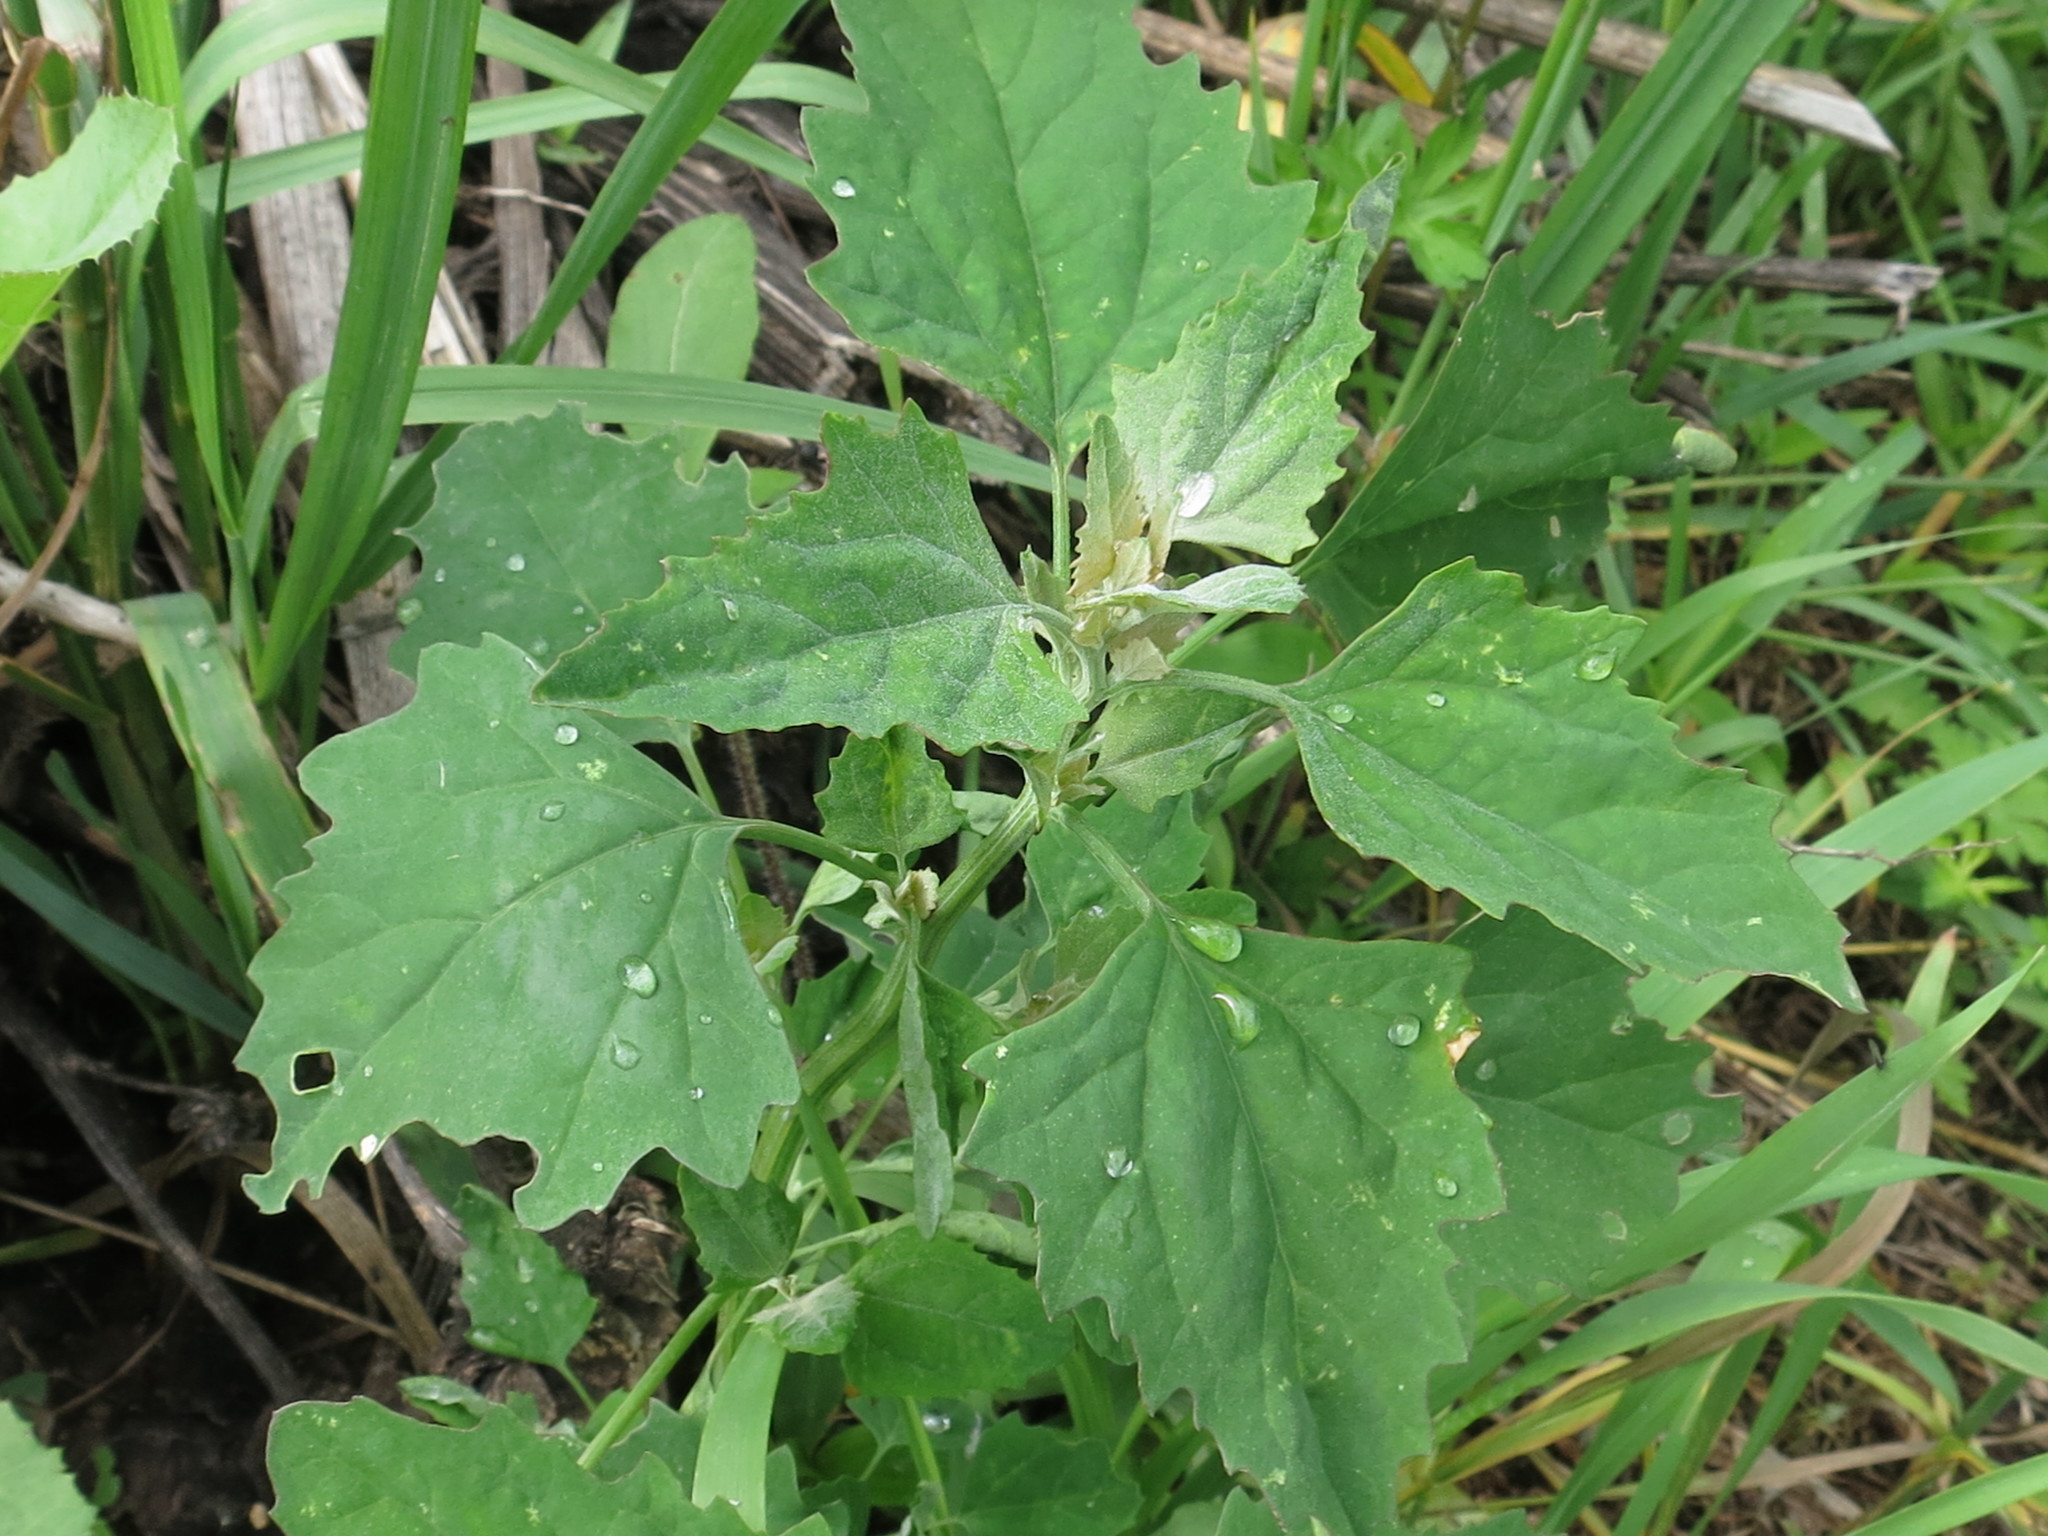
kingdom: Plantae
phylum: Tracheophyta
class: Magnoliopsida
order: Caryophyllales
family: Amaranthaceae
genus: Chenopodium
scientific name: Chenopodium album
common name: Fat-hen
